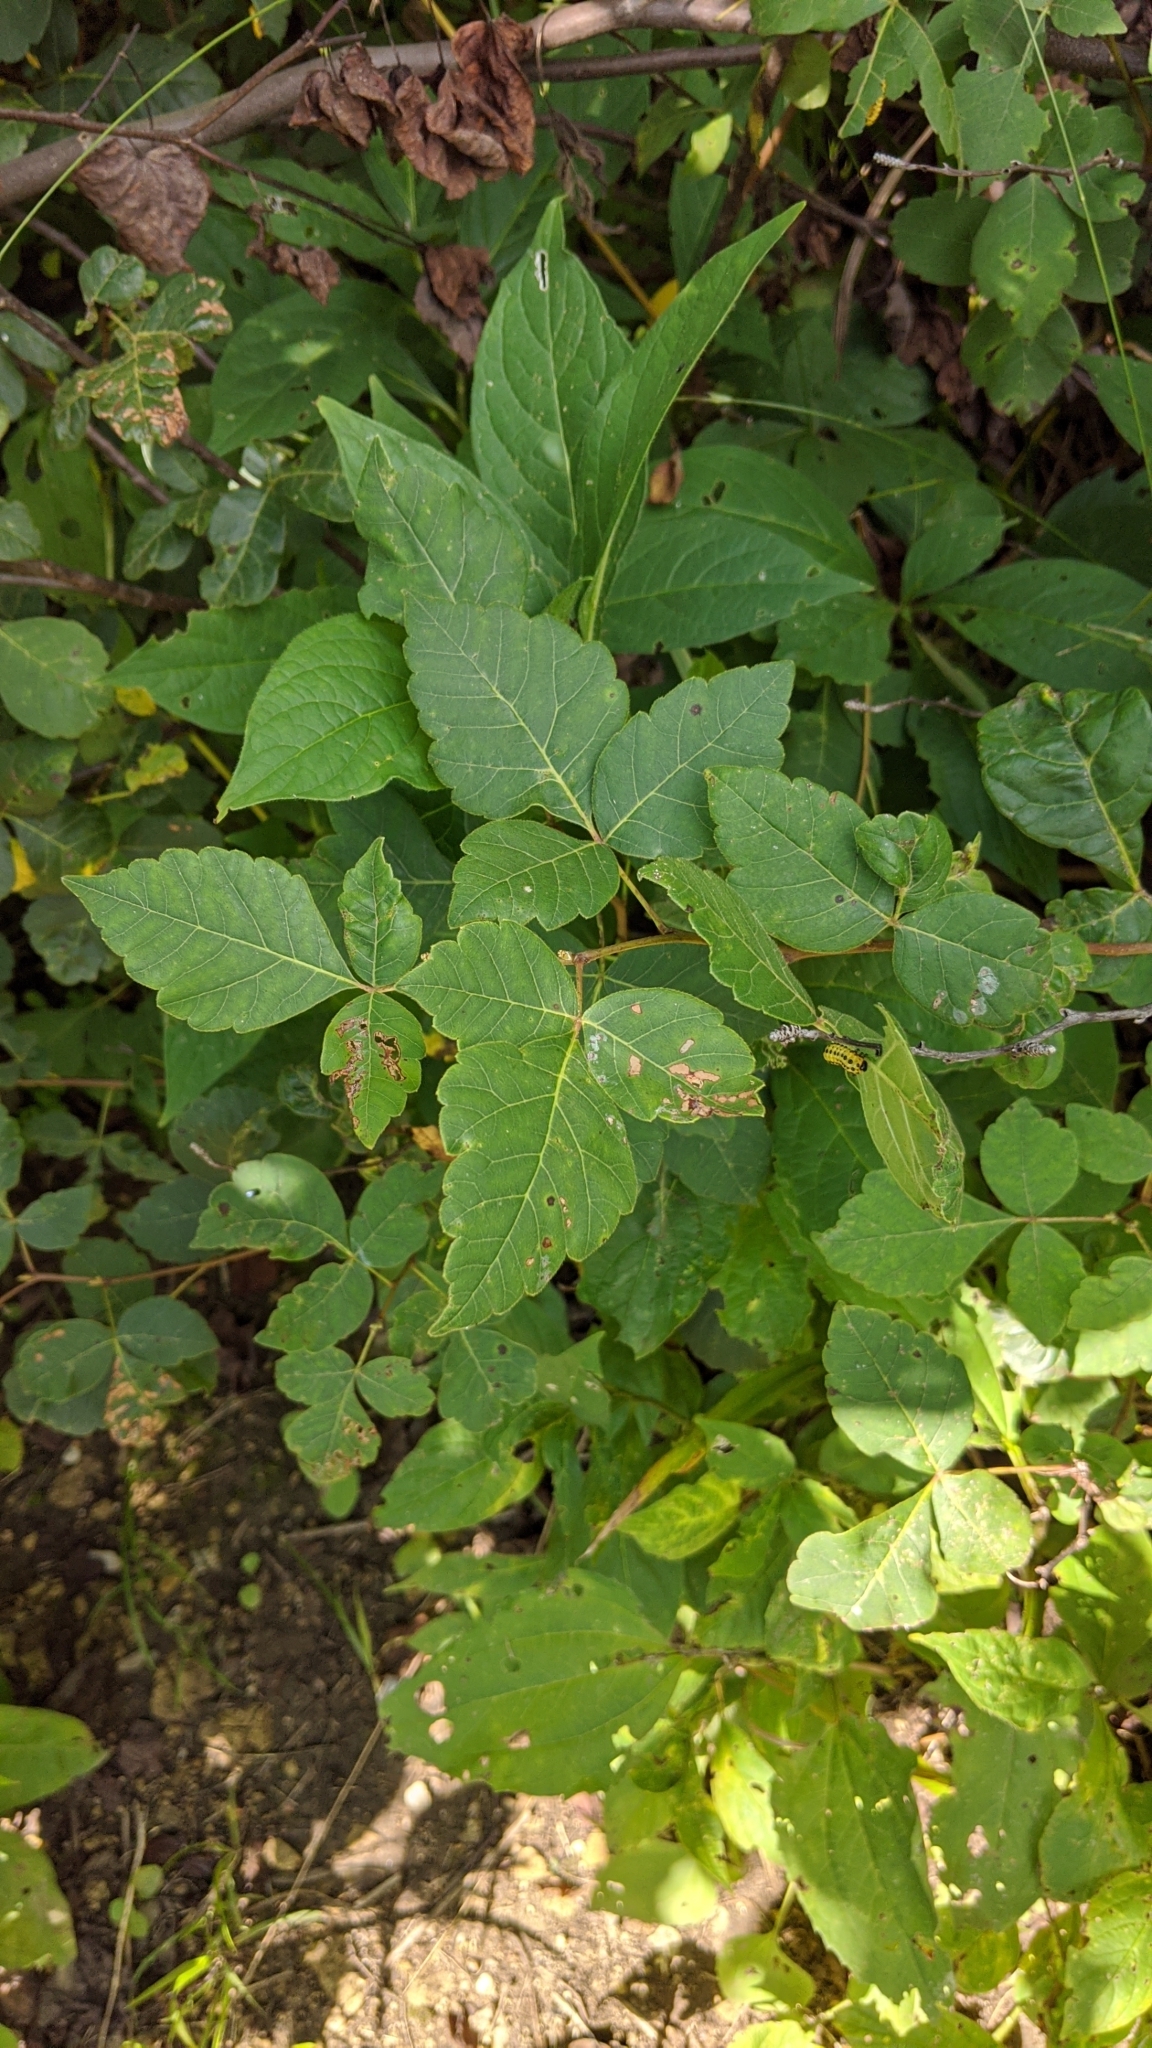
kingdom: Plantae
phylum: Tracheophyta
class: Magnoliopsida
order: Sapindales
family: Anacardiaceae
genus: Rhus
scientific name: Rhus aromatica
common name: Aromatic sumac
